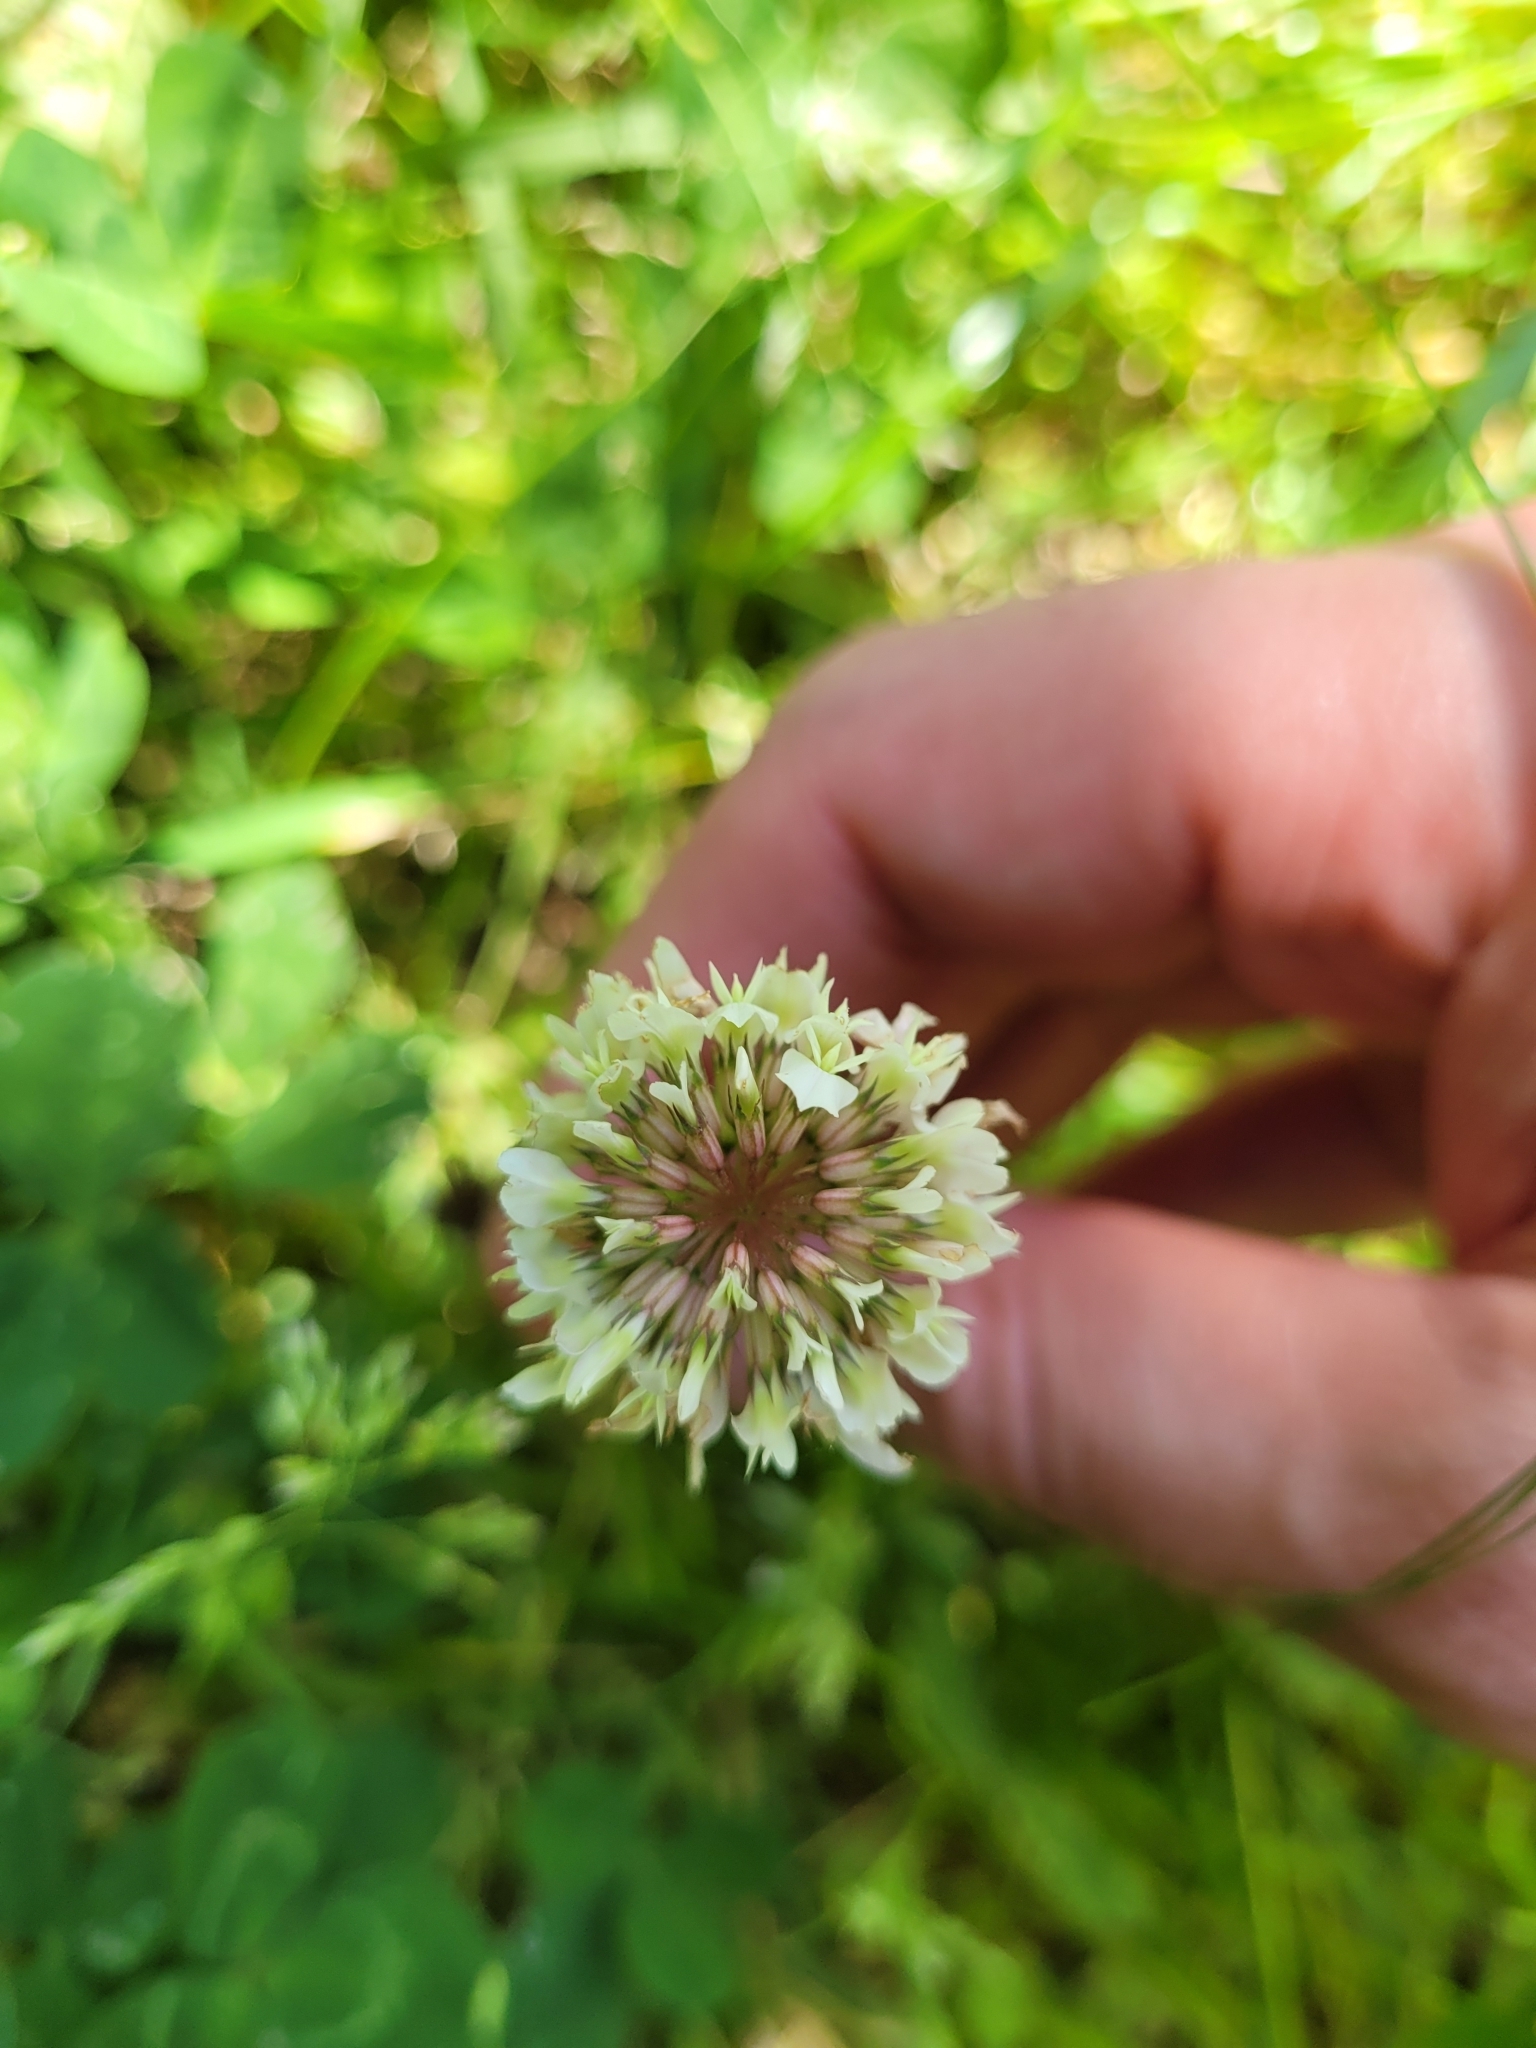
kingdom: Plantae
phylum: Tracheophyta
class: Magnoliopsida
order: Fabales
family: Fabaceae
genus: Trifolium
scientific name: Trifolium repens
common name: White clover
